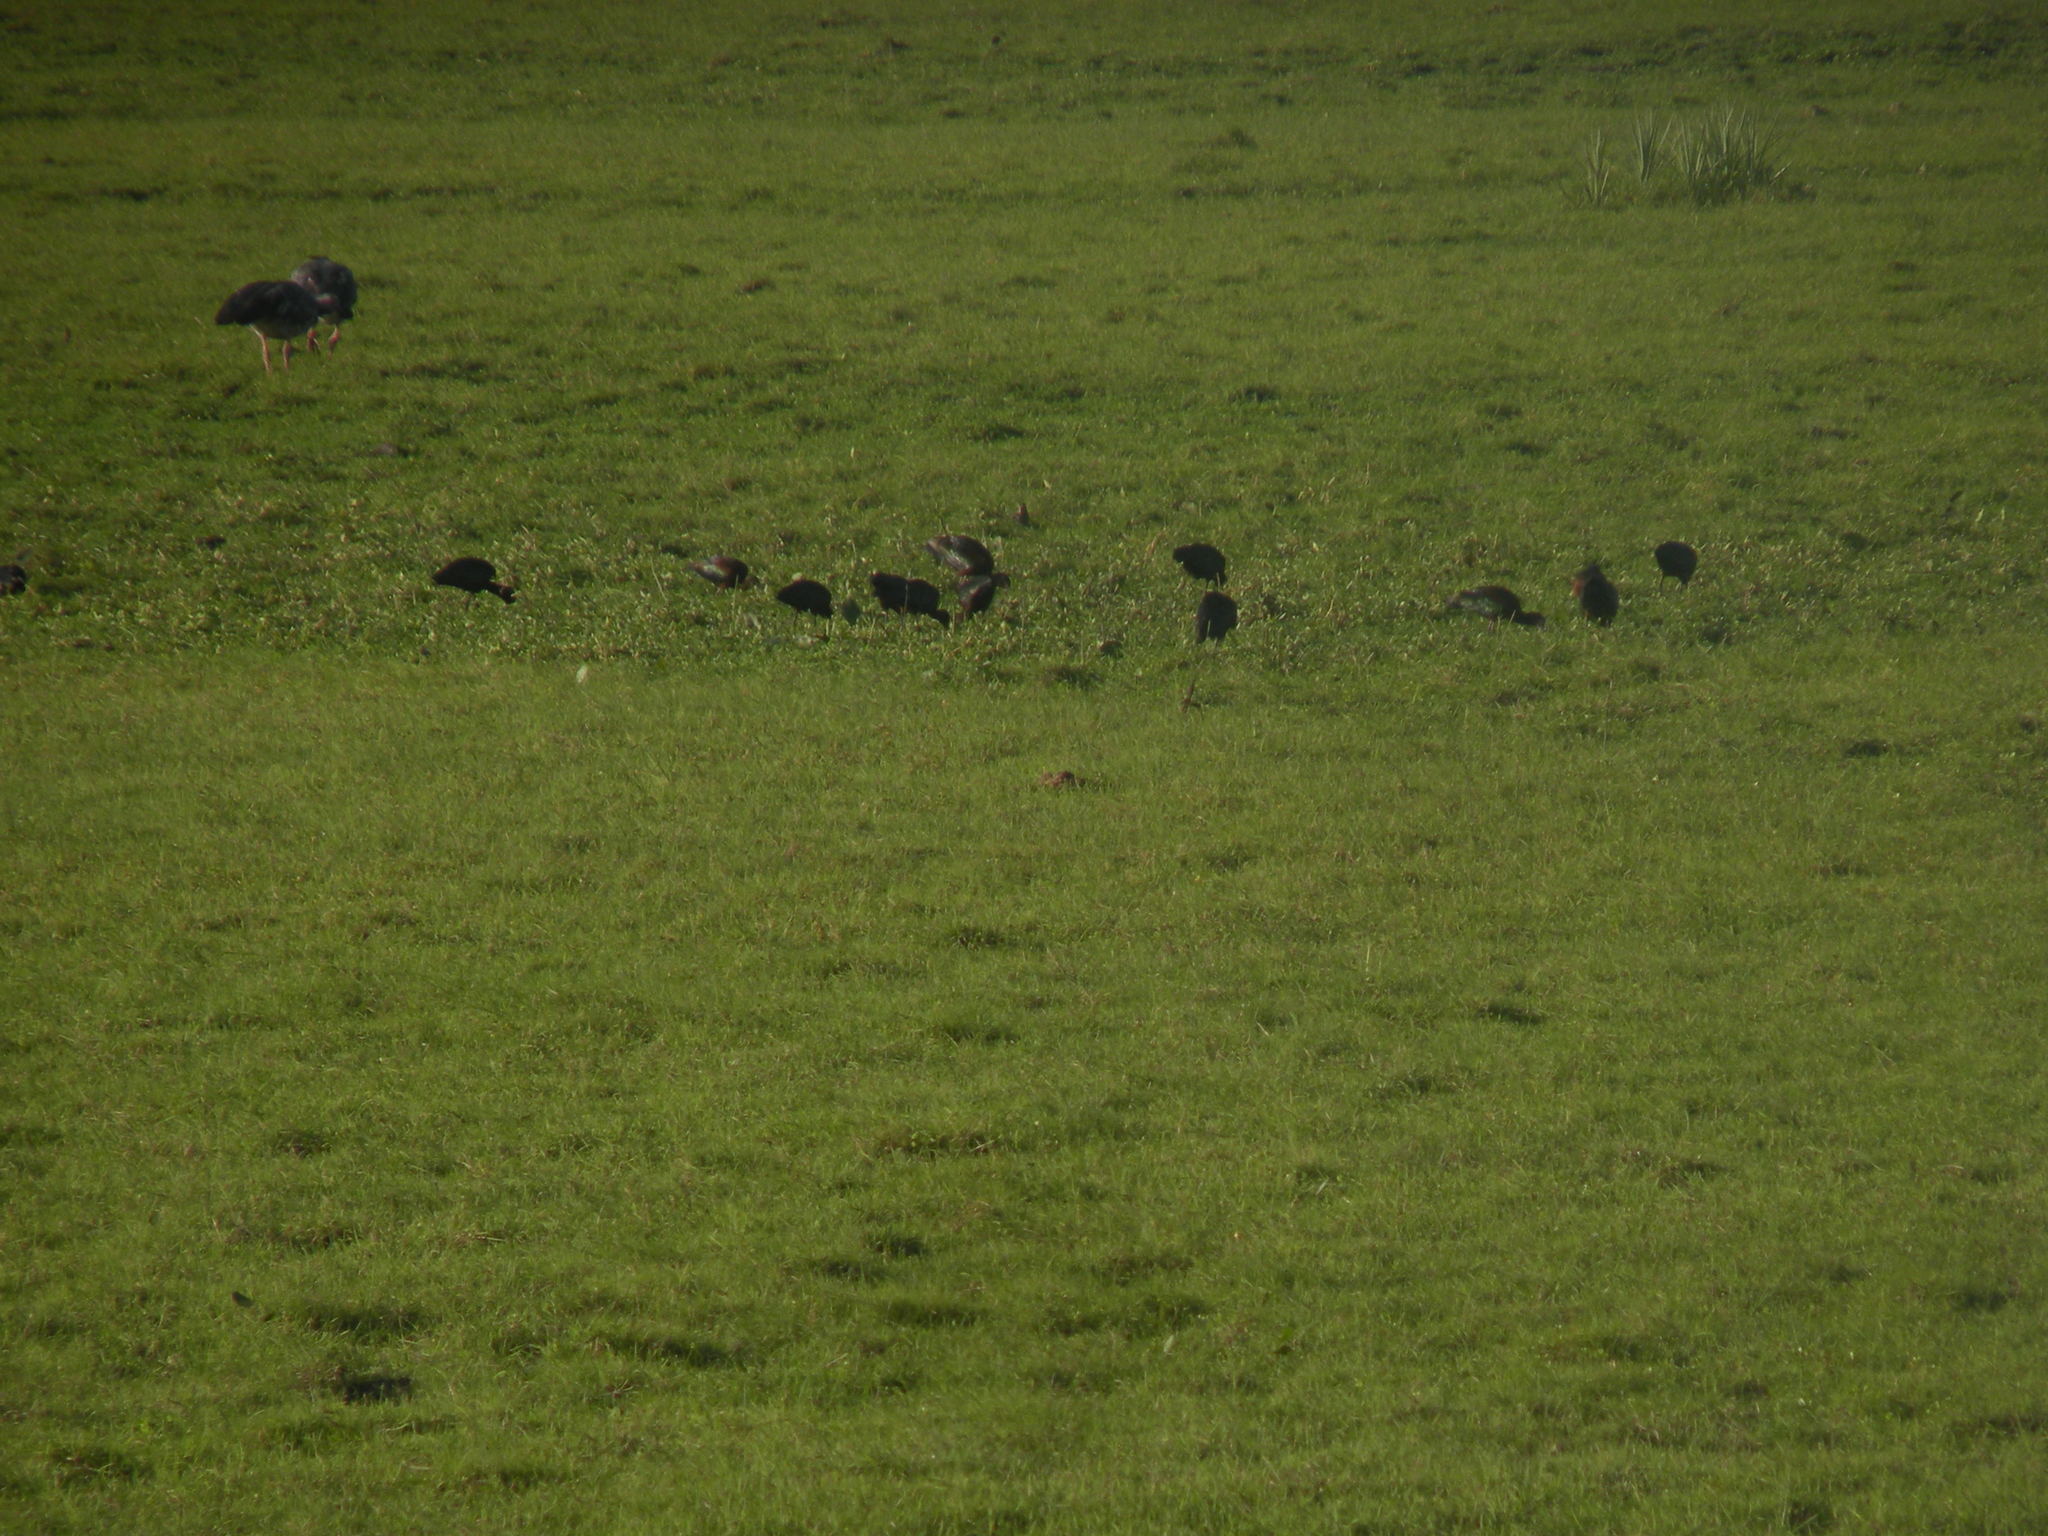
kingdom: Animalia
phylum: Chordata
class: Aves
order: Pelecaniformes
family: Threskiornithidae
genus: Plegadis
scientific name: Plegadis chihi
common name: White-faced ibis
